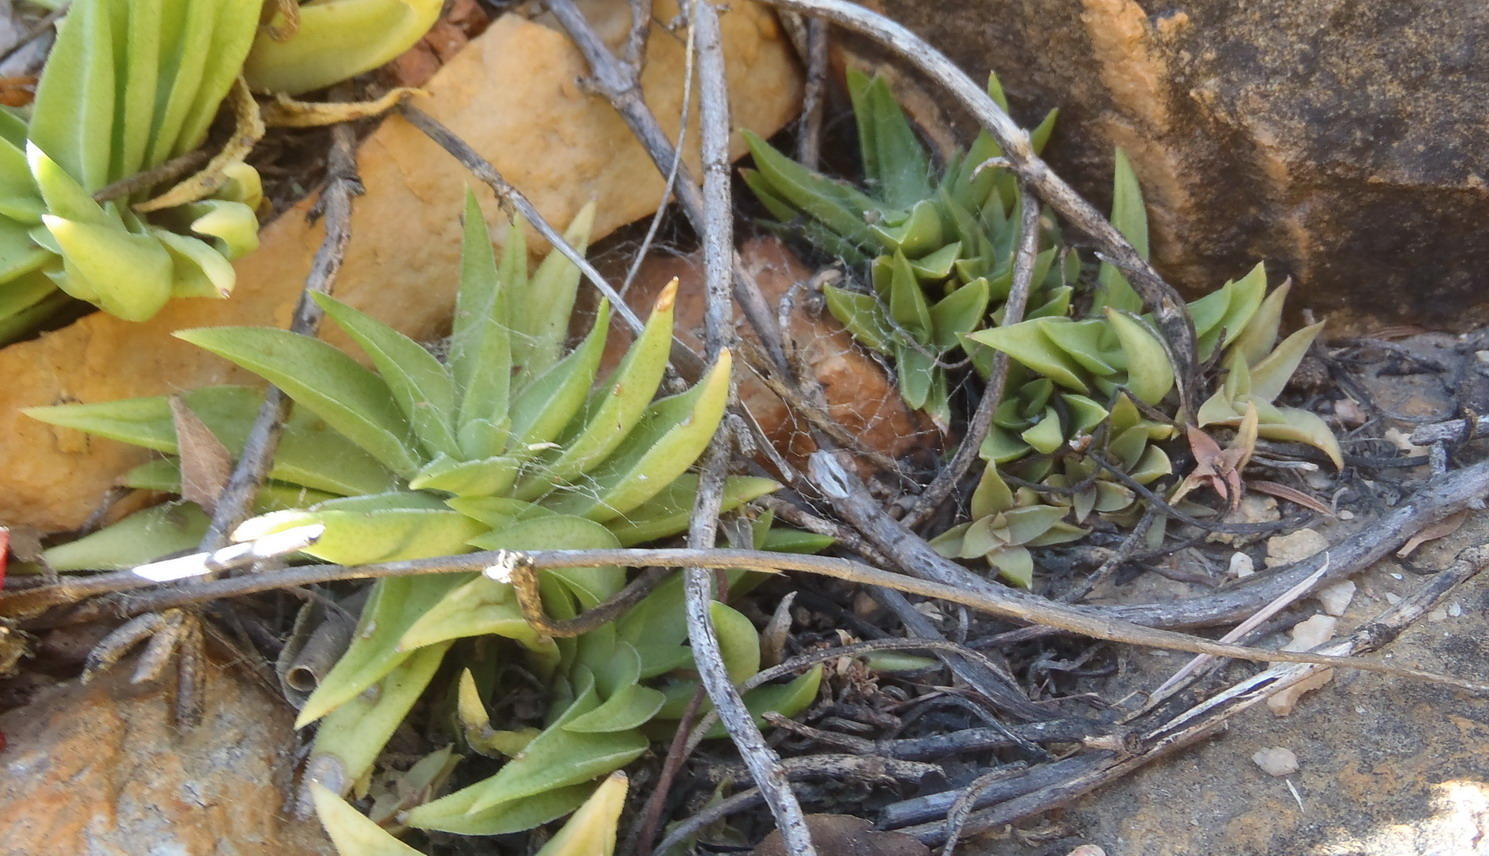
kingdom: Plantae
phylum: Tracheophyta
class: Magnoliopsida
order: Saxifragales
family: Crassulaceae
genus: Crassula
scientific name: Crassula capitella
